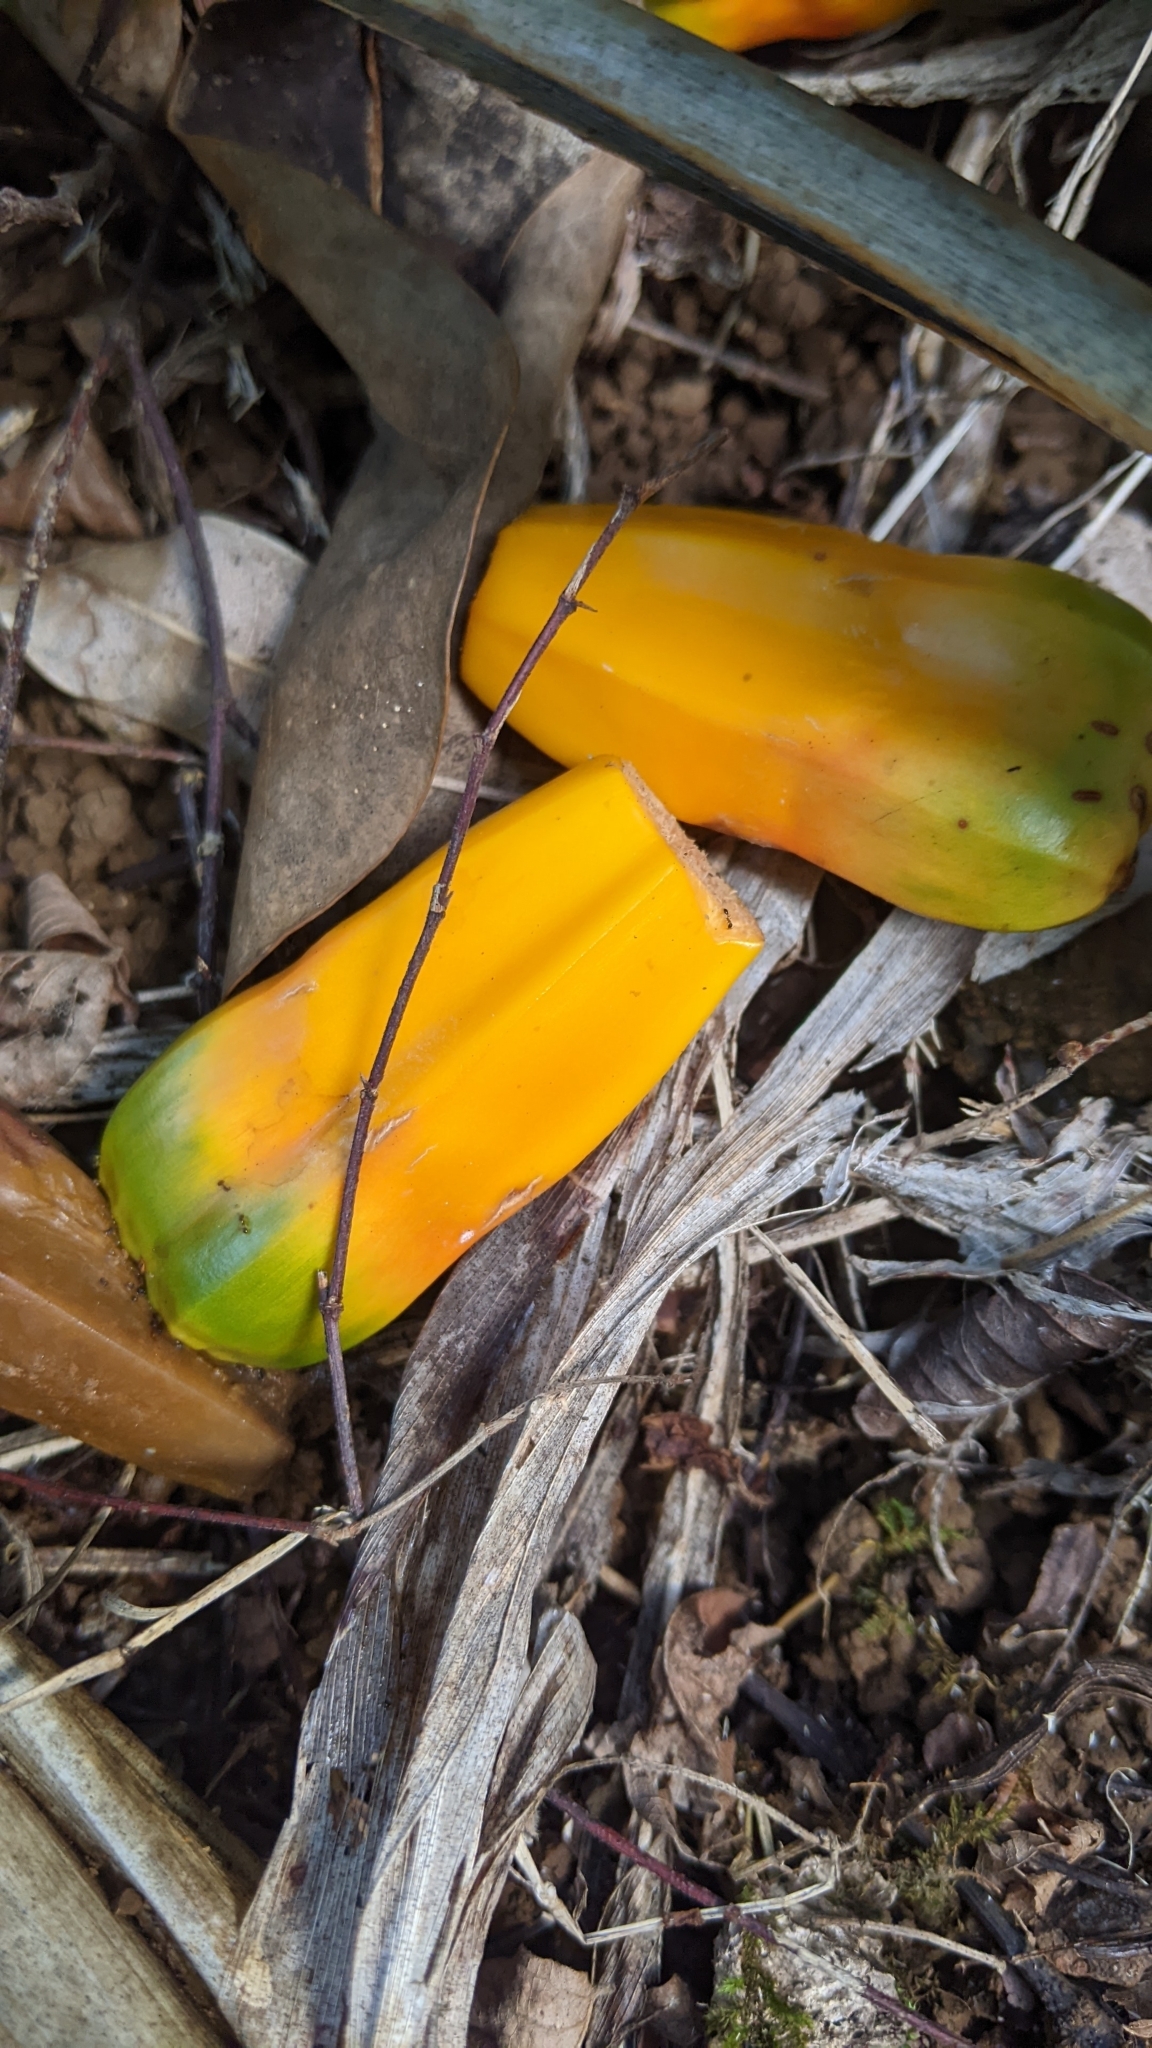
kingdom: Plantae
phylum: Tracheophyta
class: Liliopsida
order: Pandanales
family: Pandanaceae
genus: Pandanus
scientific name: Pandanus tectorius
